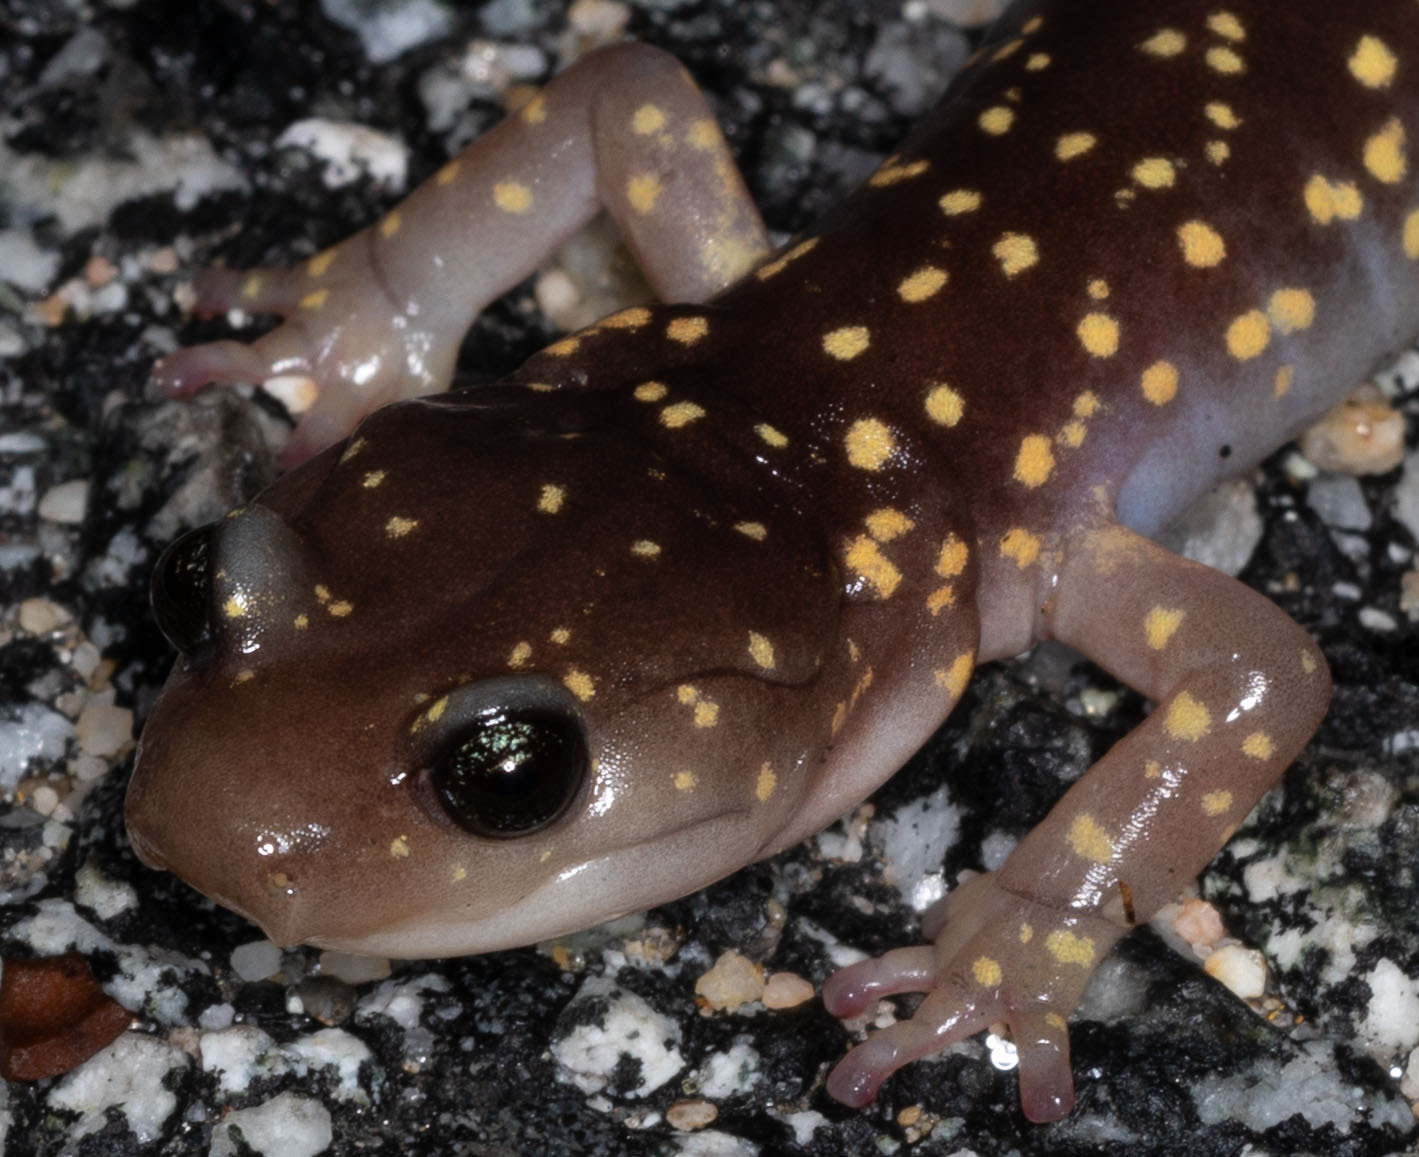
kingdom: Animalia
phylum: Chordata
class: Amphibia
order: Caudata
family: Plethodontidae
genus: Aneides
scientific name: Aneides lugubris
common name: Arboreal salamander
